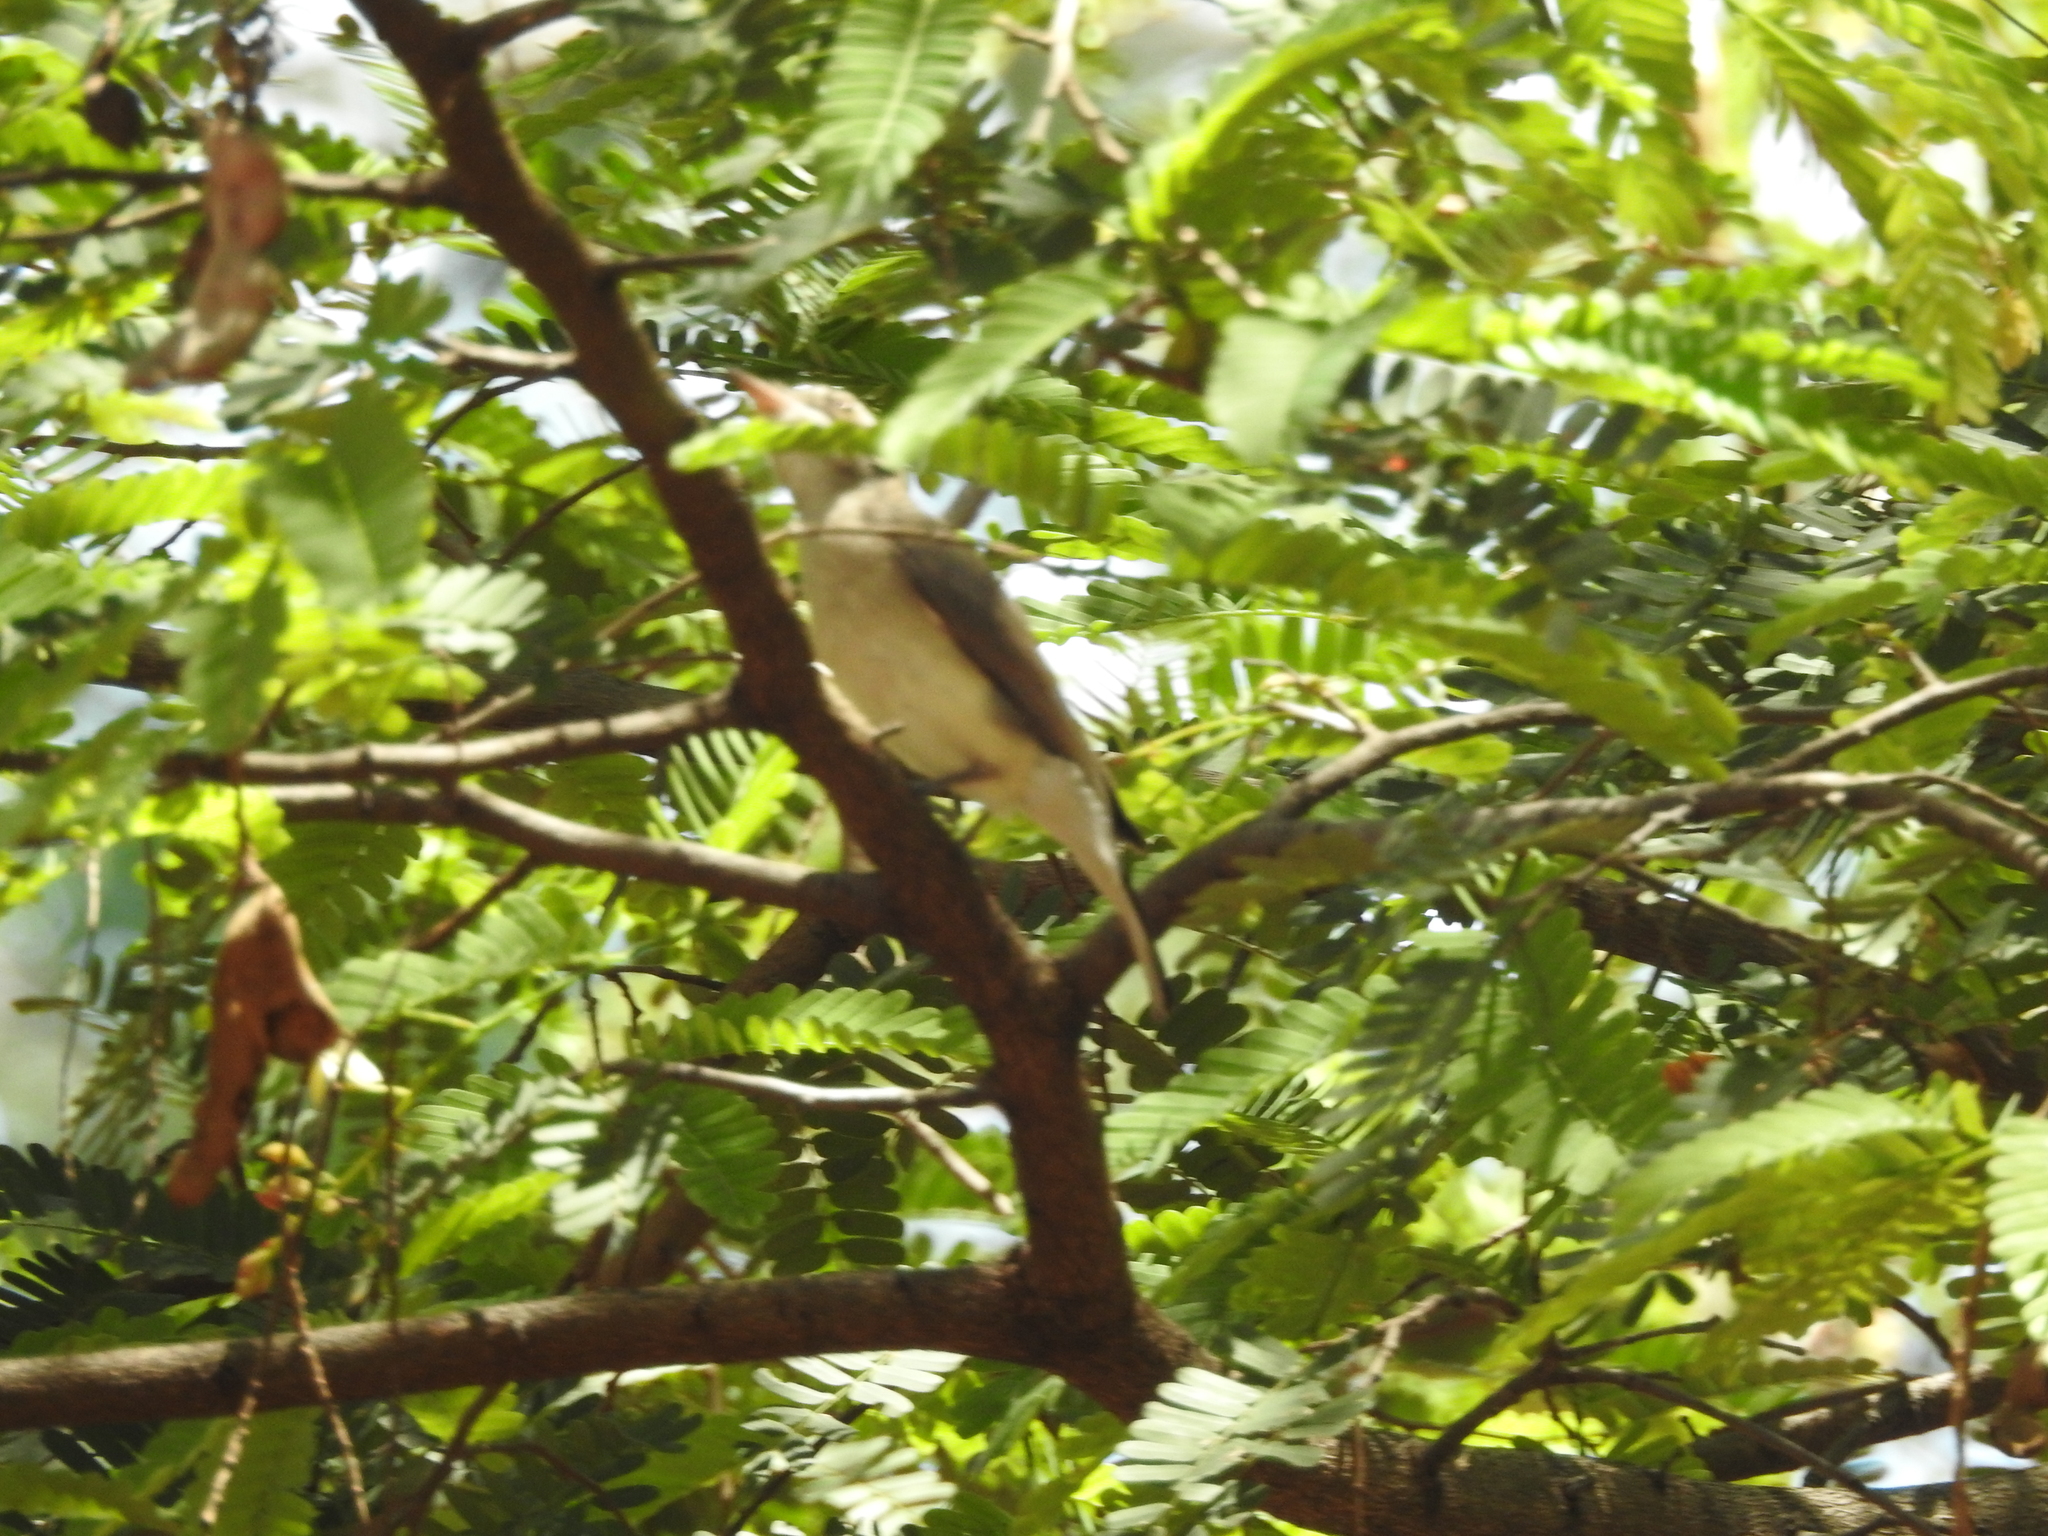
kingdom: Animalia
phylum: Chordata
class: Aves
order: Passeriformes
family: Tephrodornithidae
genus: Tephrodornis
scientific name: Tephrodornis pondicerianus
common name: Common woodshrike
